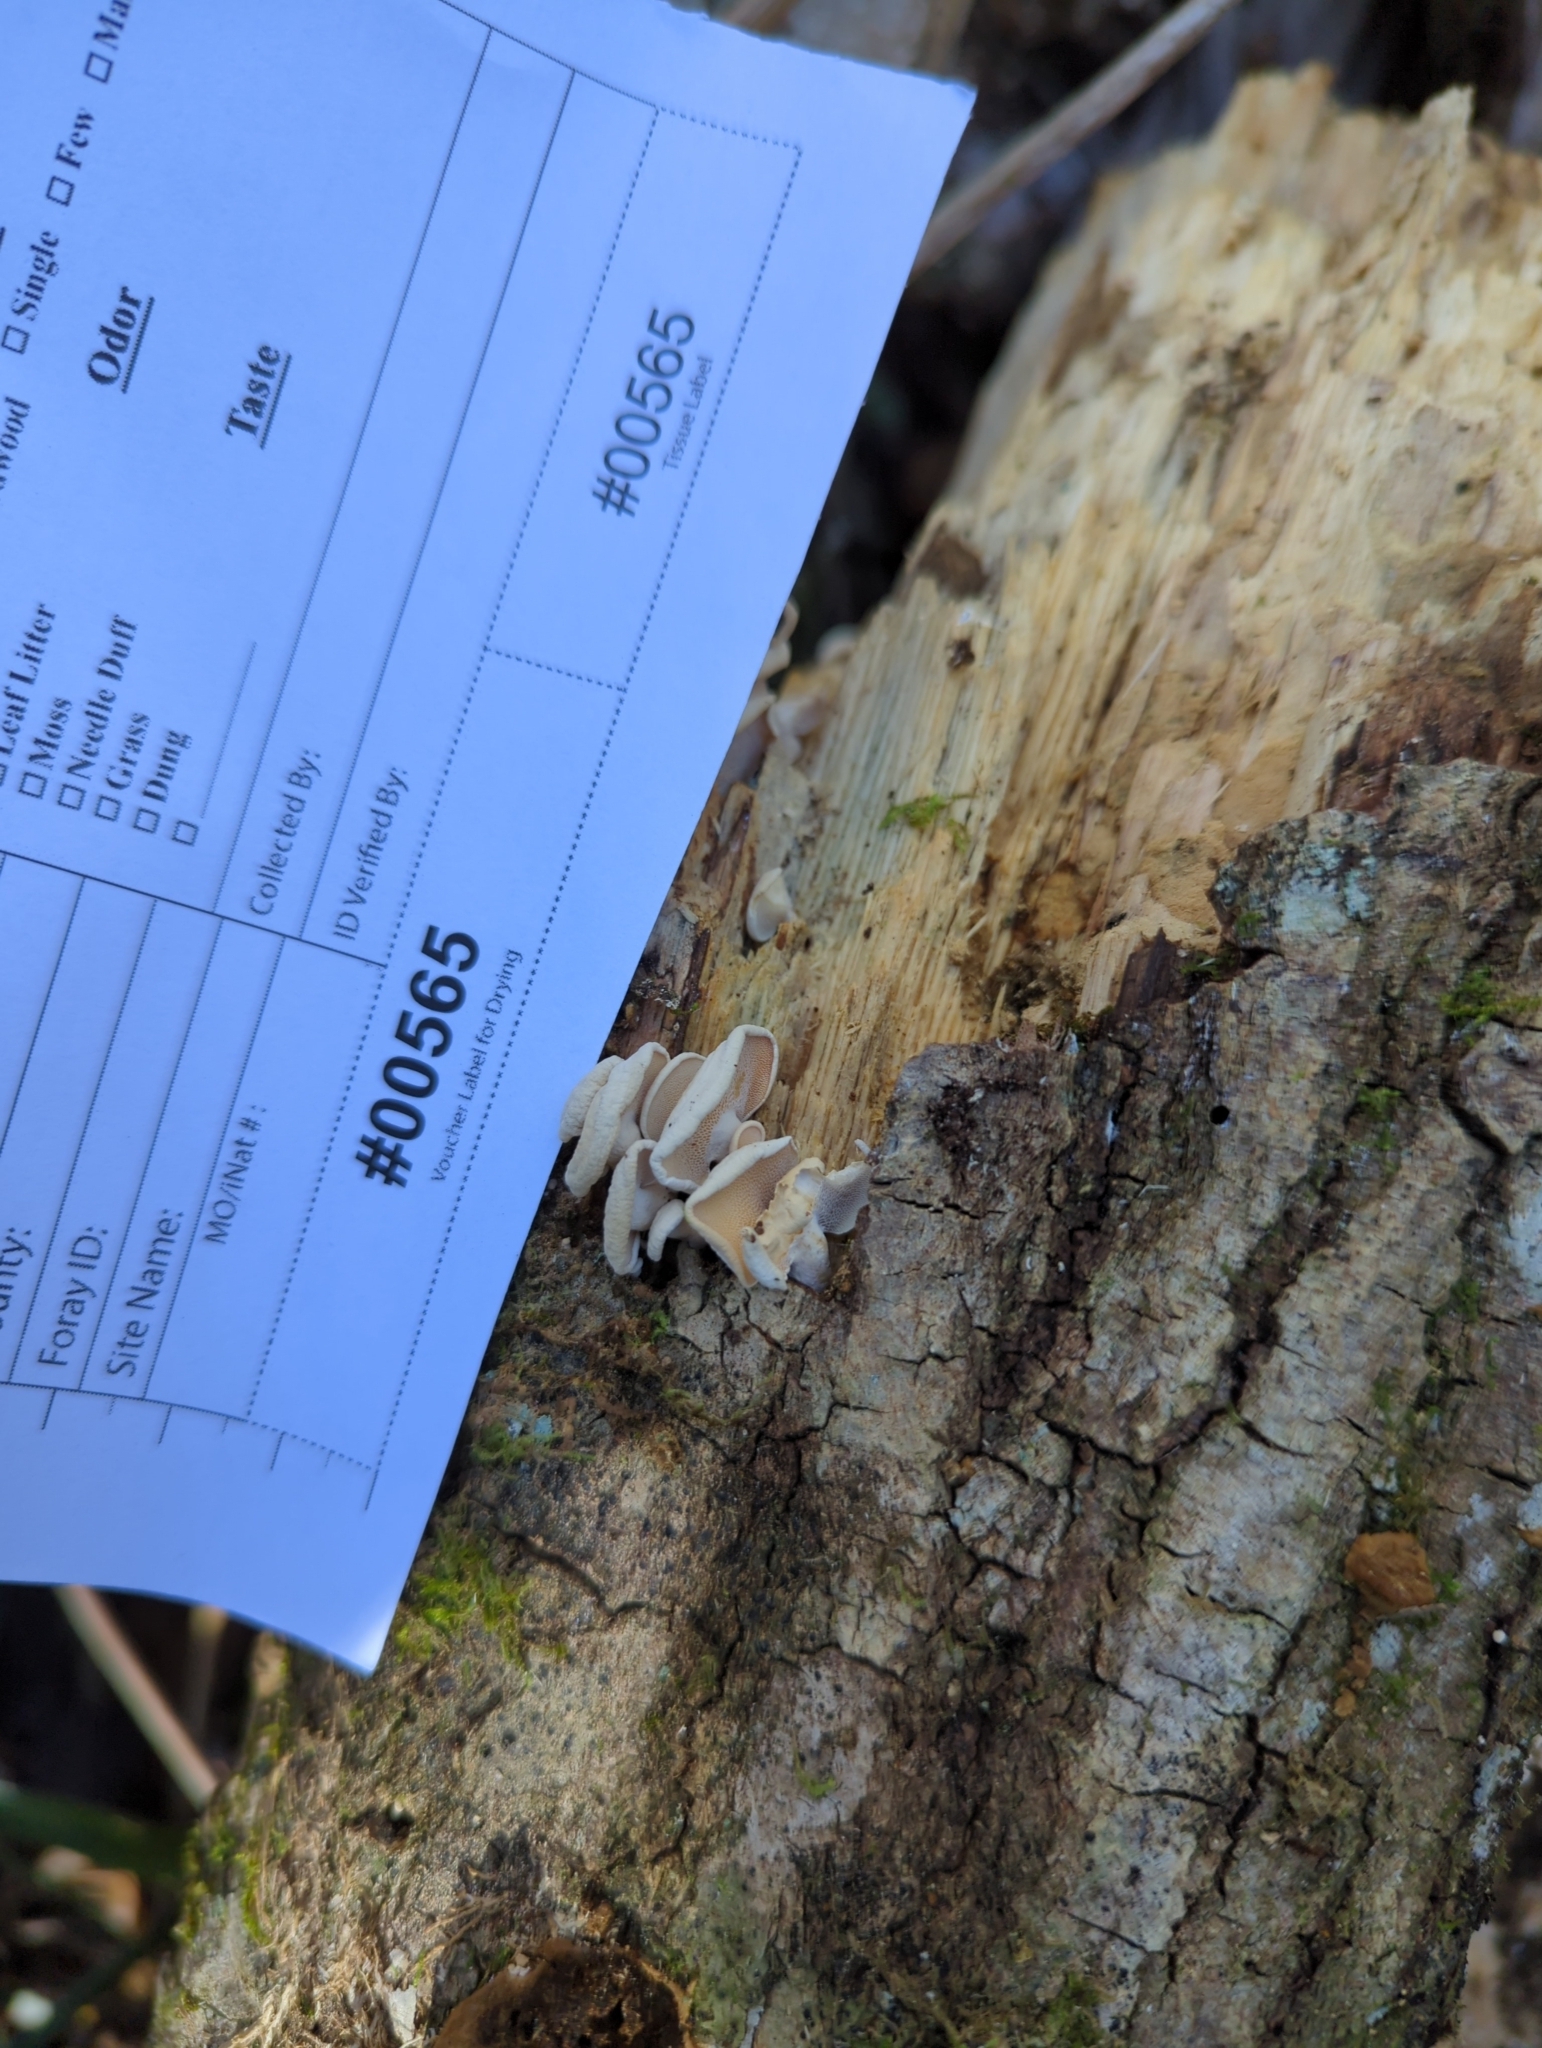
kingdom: Fungi
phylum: Basidiomycota
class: Agaricomycetes
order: Agaricales
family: Mycenaceae
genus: Panellus
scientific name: Panellus pusillus
